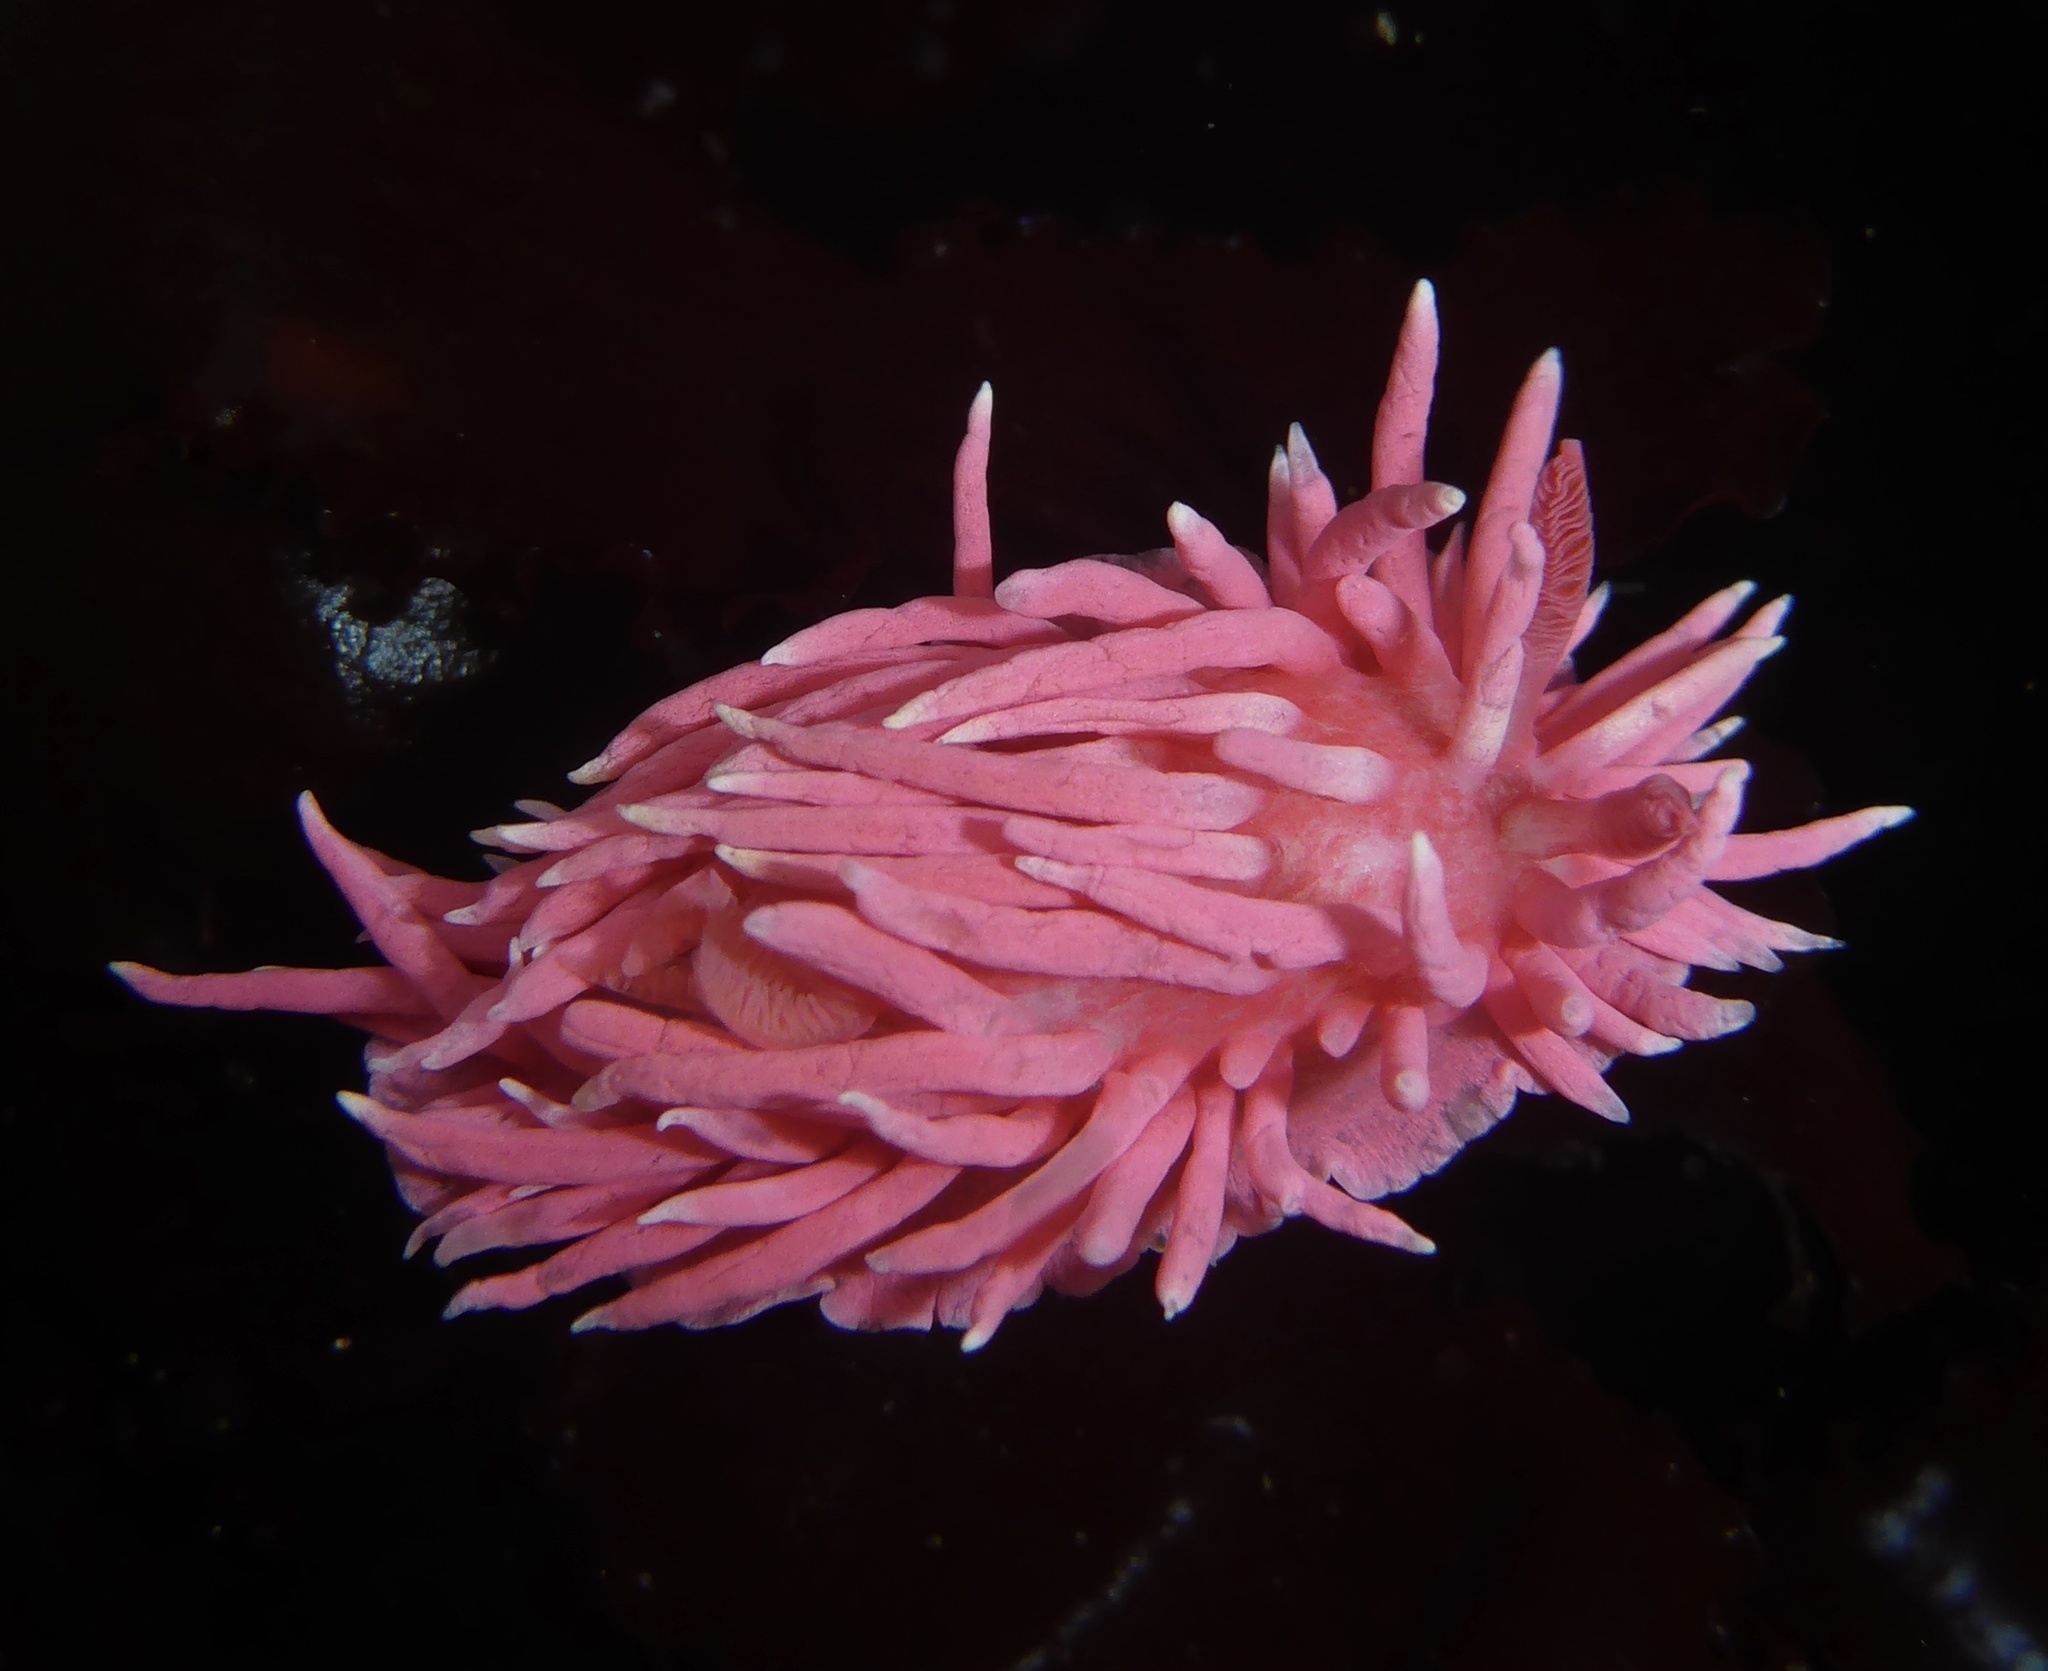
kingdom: Animalia
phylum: Mollusca
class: Gastropoda
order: Nudibranchia
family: Goniodorididae
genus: Okenia
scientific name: Okenia
